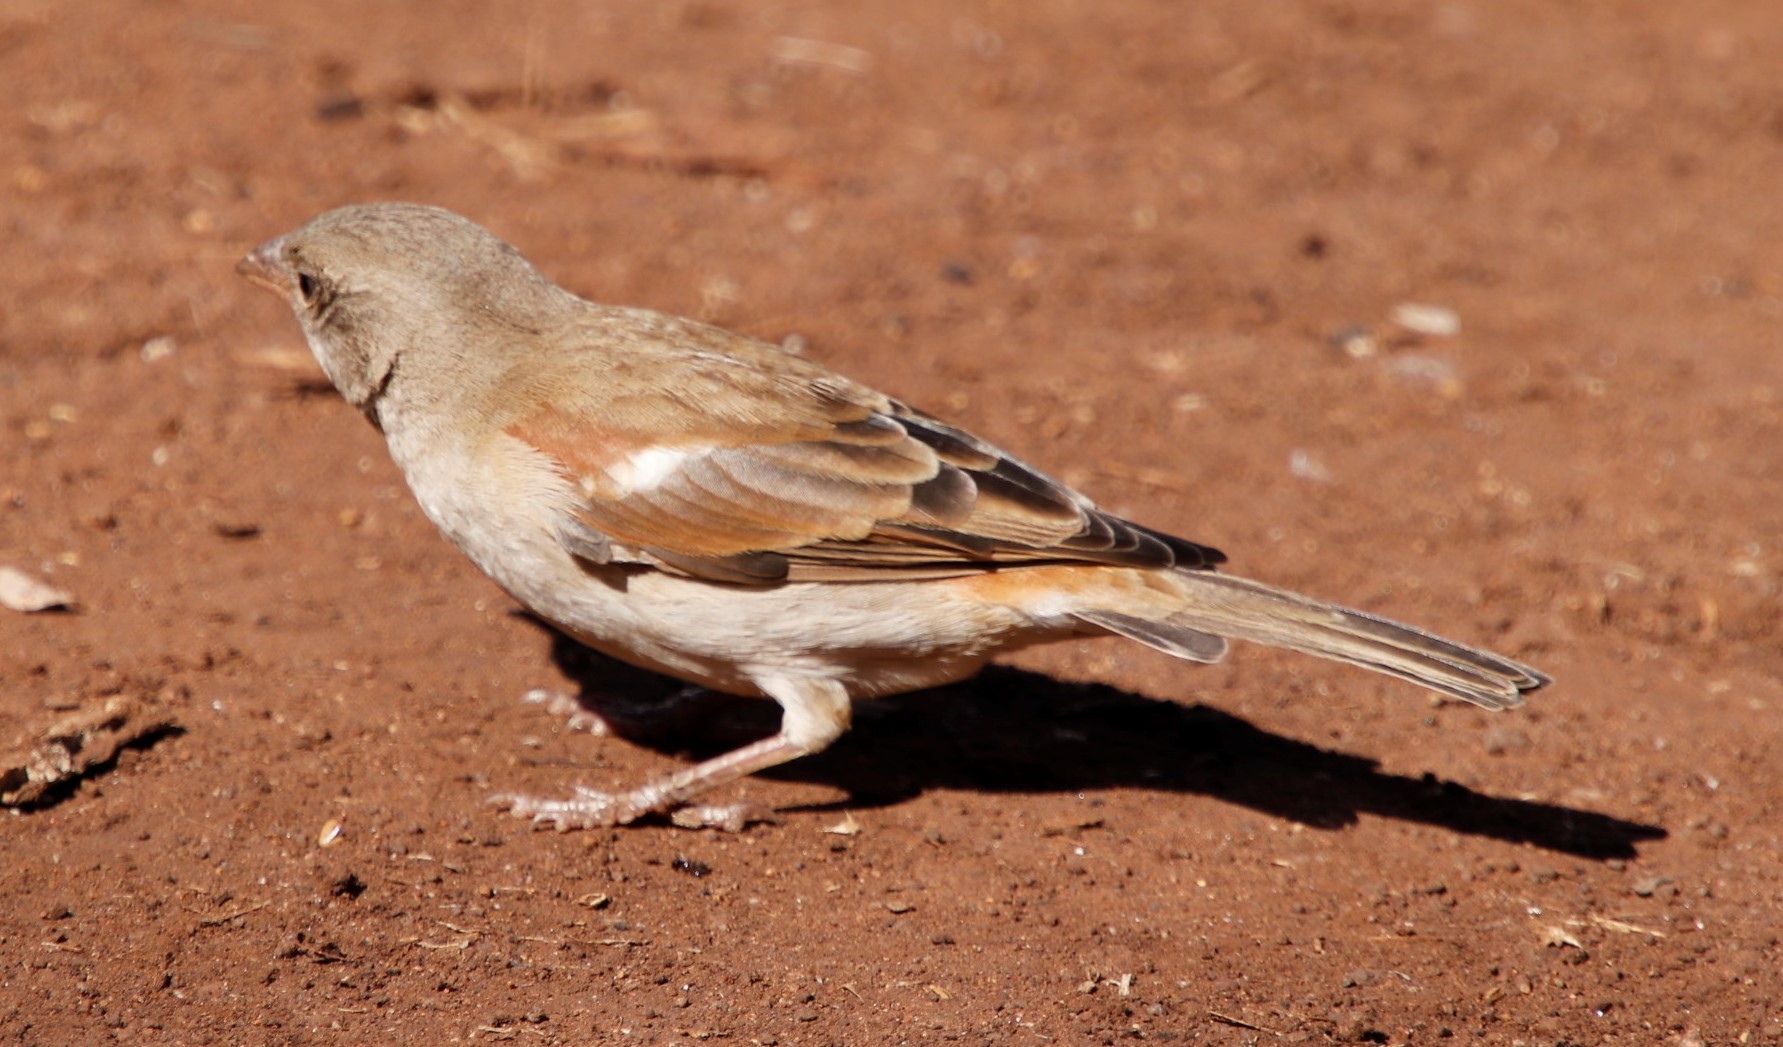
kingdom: Animalia
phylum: Chordata
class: Aves
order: Passeriformes
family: Passeridae
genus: Passer
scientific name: Passer diffusus
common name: Southern grey-headed sparrow
